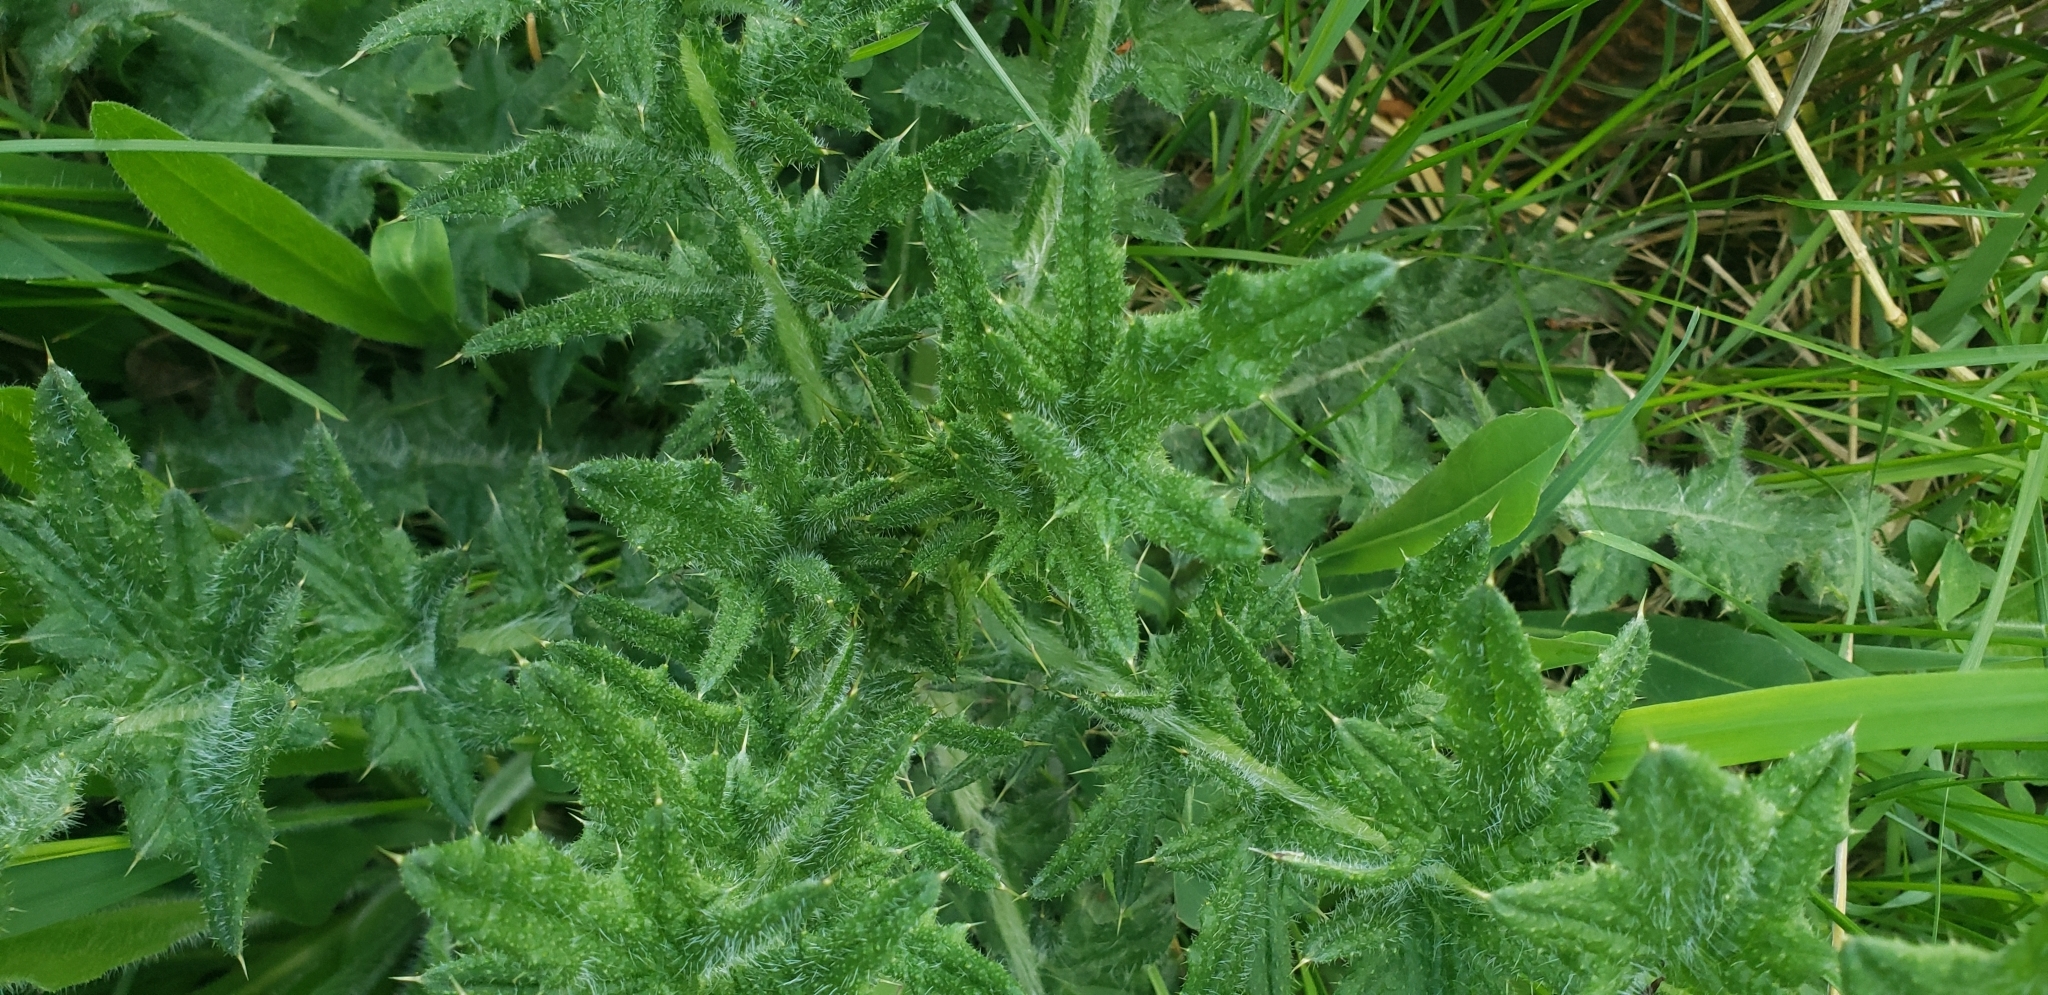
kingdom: Plantae
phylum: Tracheophyta
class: Magnoliopsida
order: Asterales
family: Asteraceae
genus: Cirsium
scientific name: Cirsium vulgare
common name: Bull thistle
